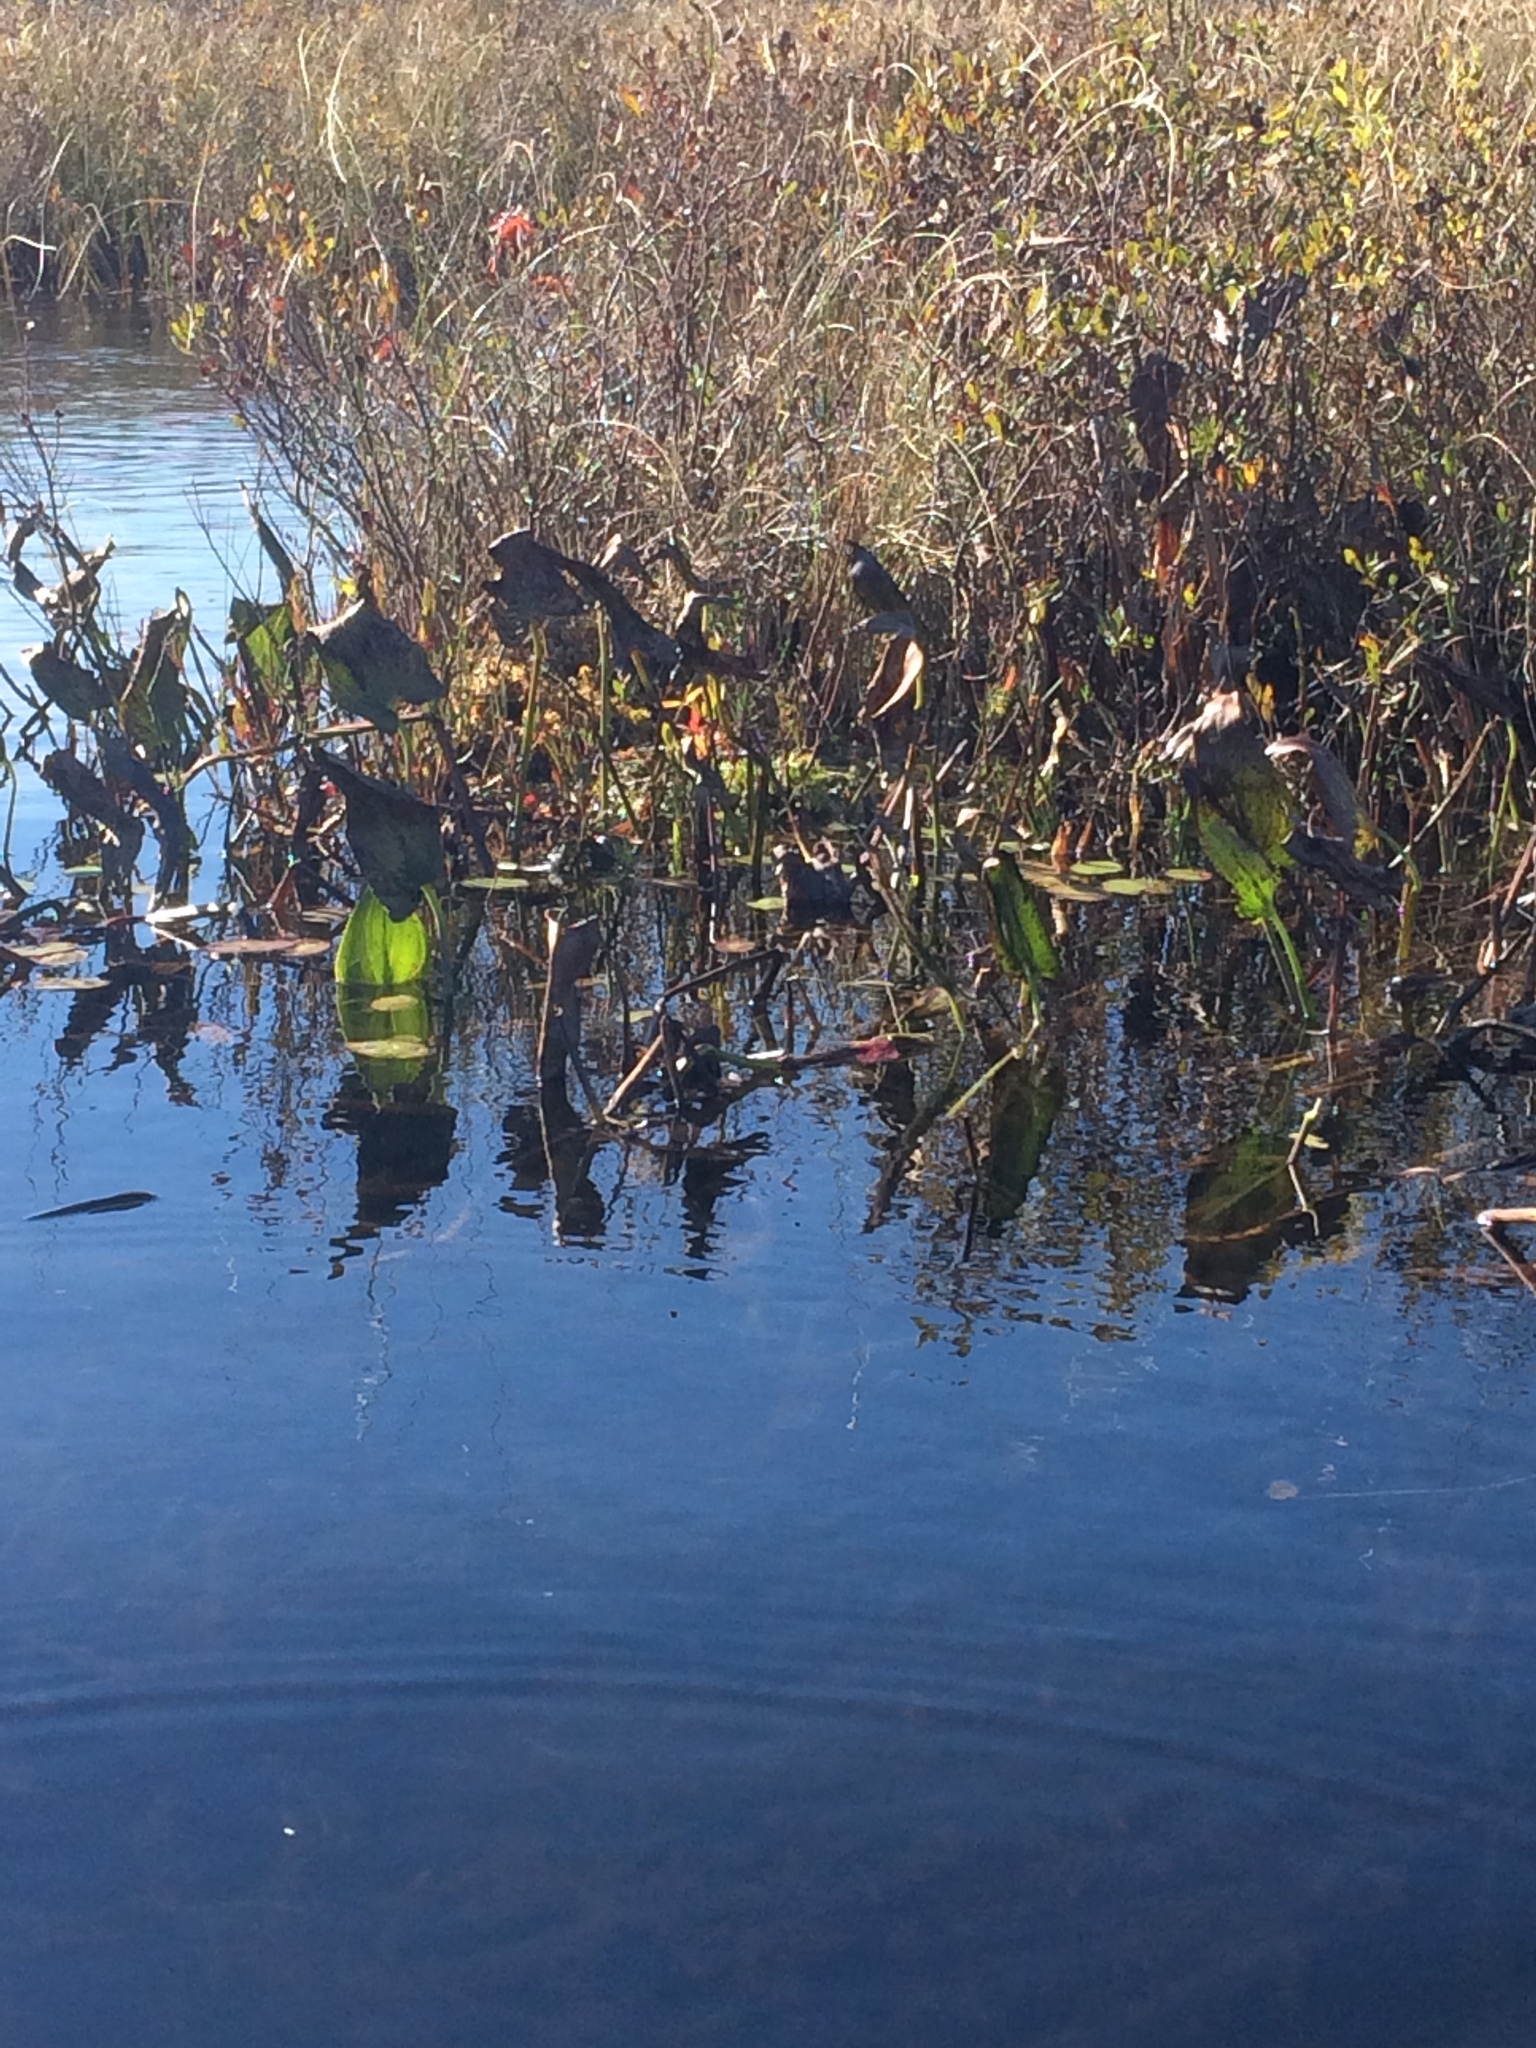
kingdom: Plantae
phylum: Tracheophyta
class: Liliopsida
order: Commelinales
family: Pontederiaceae
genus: Pontederia
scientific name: Pontederia cordata
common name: Pickerelweed
